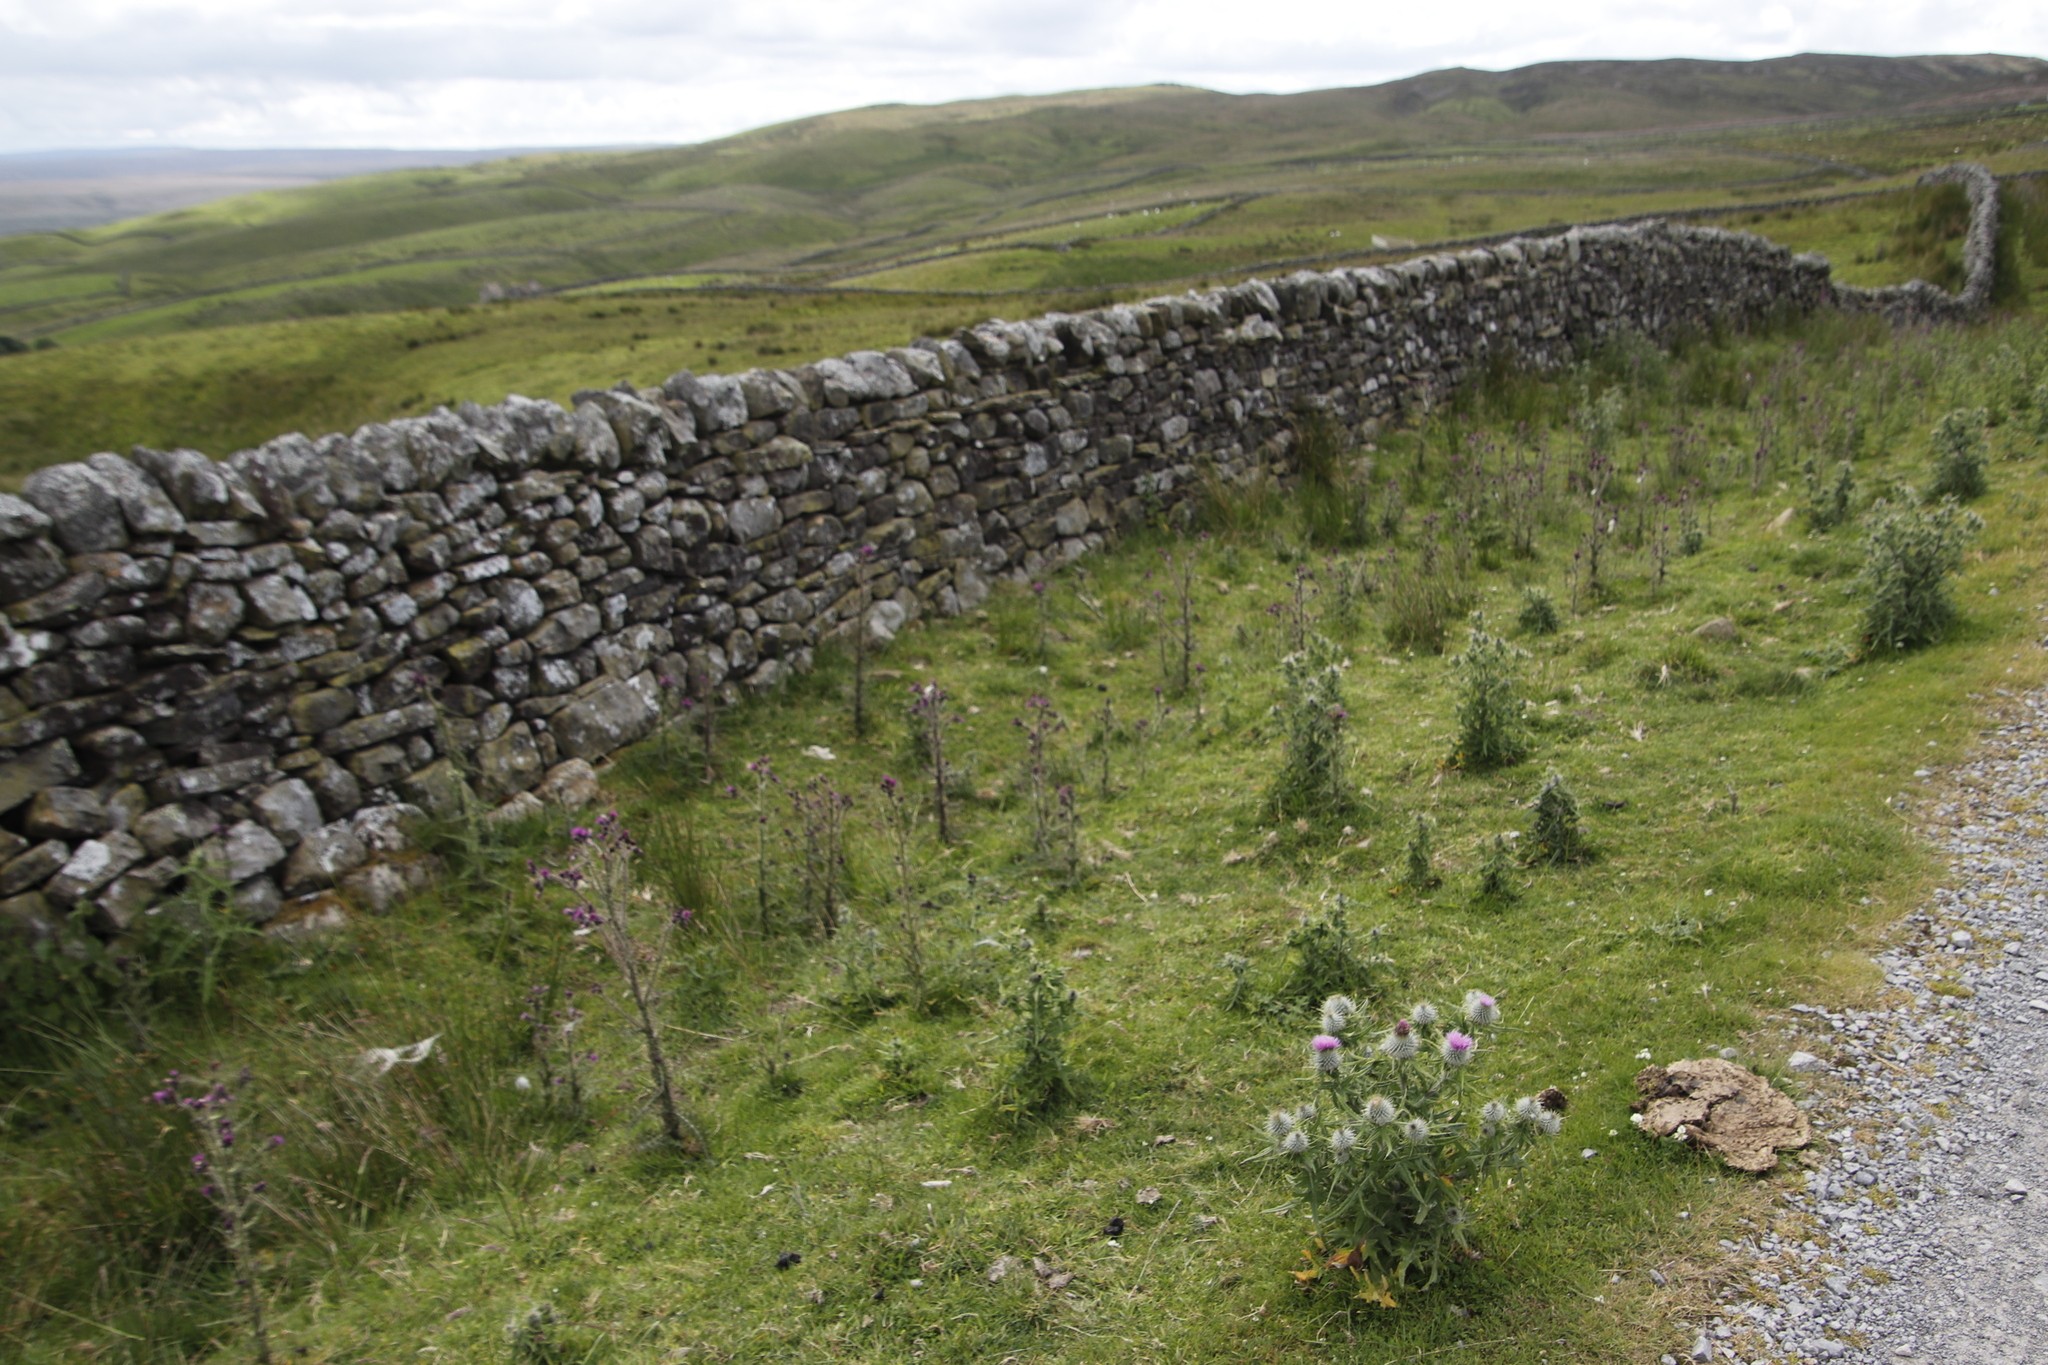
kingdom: Plantae
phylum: Tracheophyta
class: Magnoliopsida
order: Asterales
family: Asteraceae
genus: Cirsium
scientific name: Cirsium vulgare
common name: Bull thistle
